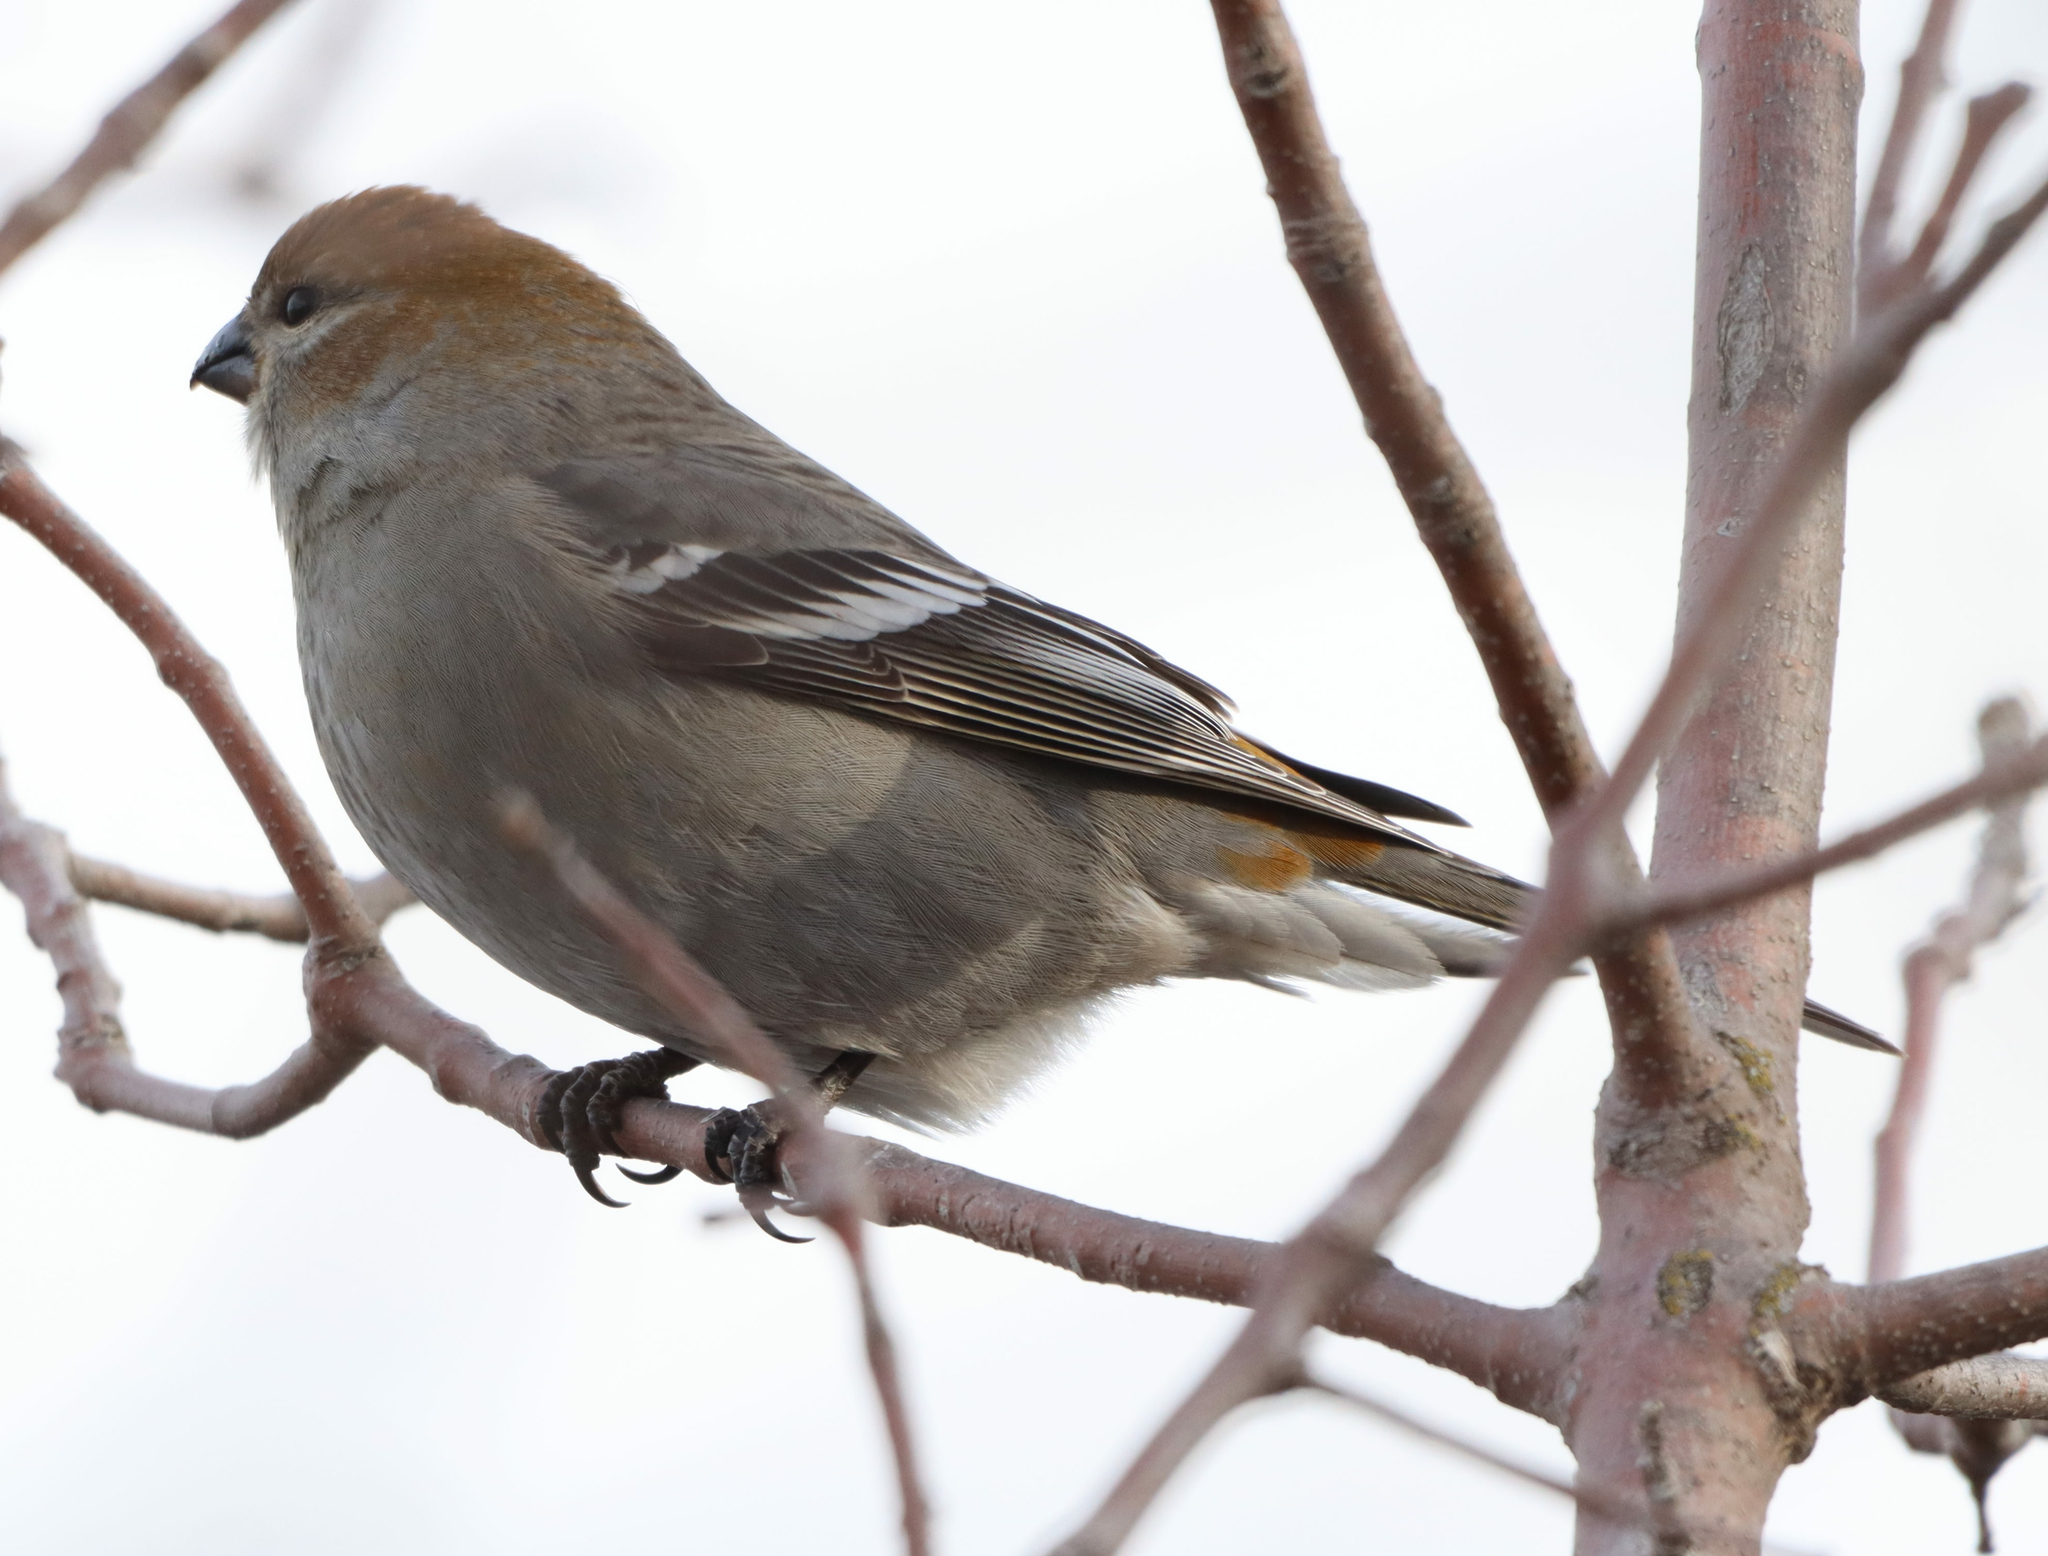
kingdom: Animalia
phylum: Chordata
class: Aves
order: Passeriformes
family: Fringillidae
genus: Pinicola
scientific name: Pinicola enucleator
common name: Pine grosbeak
